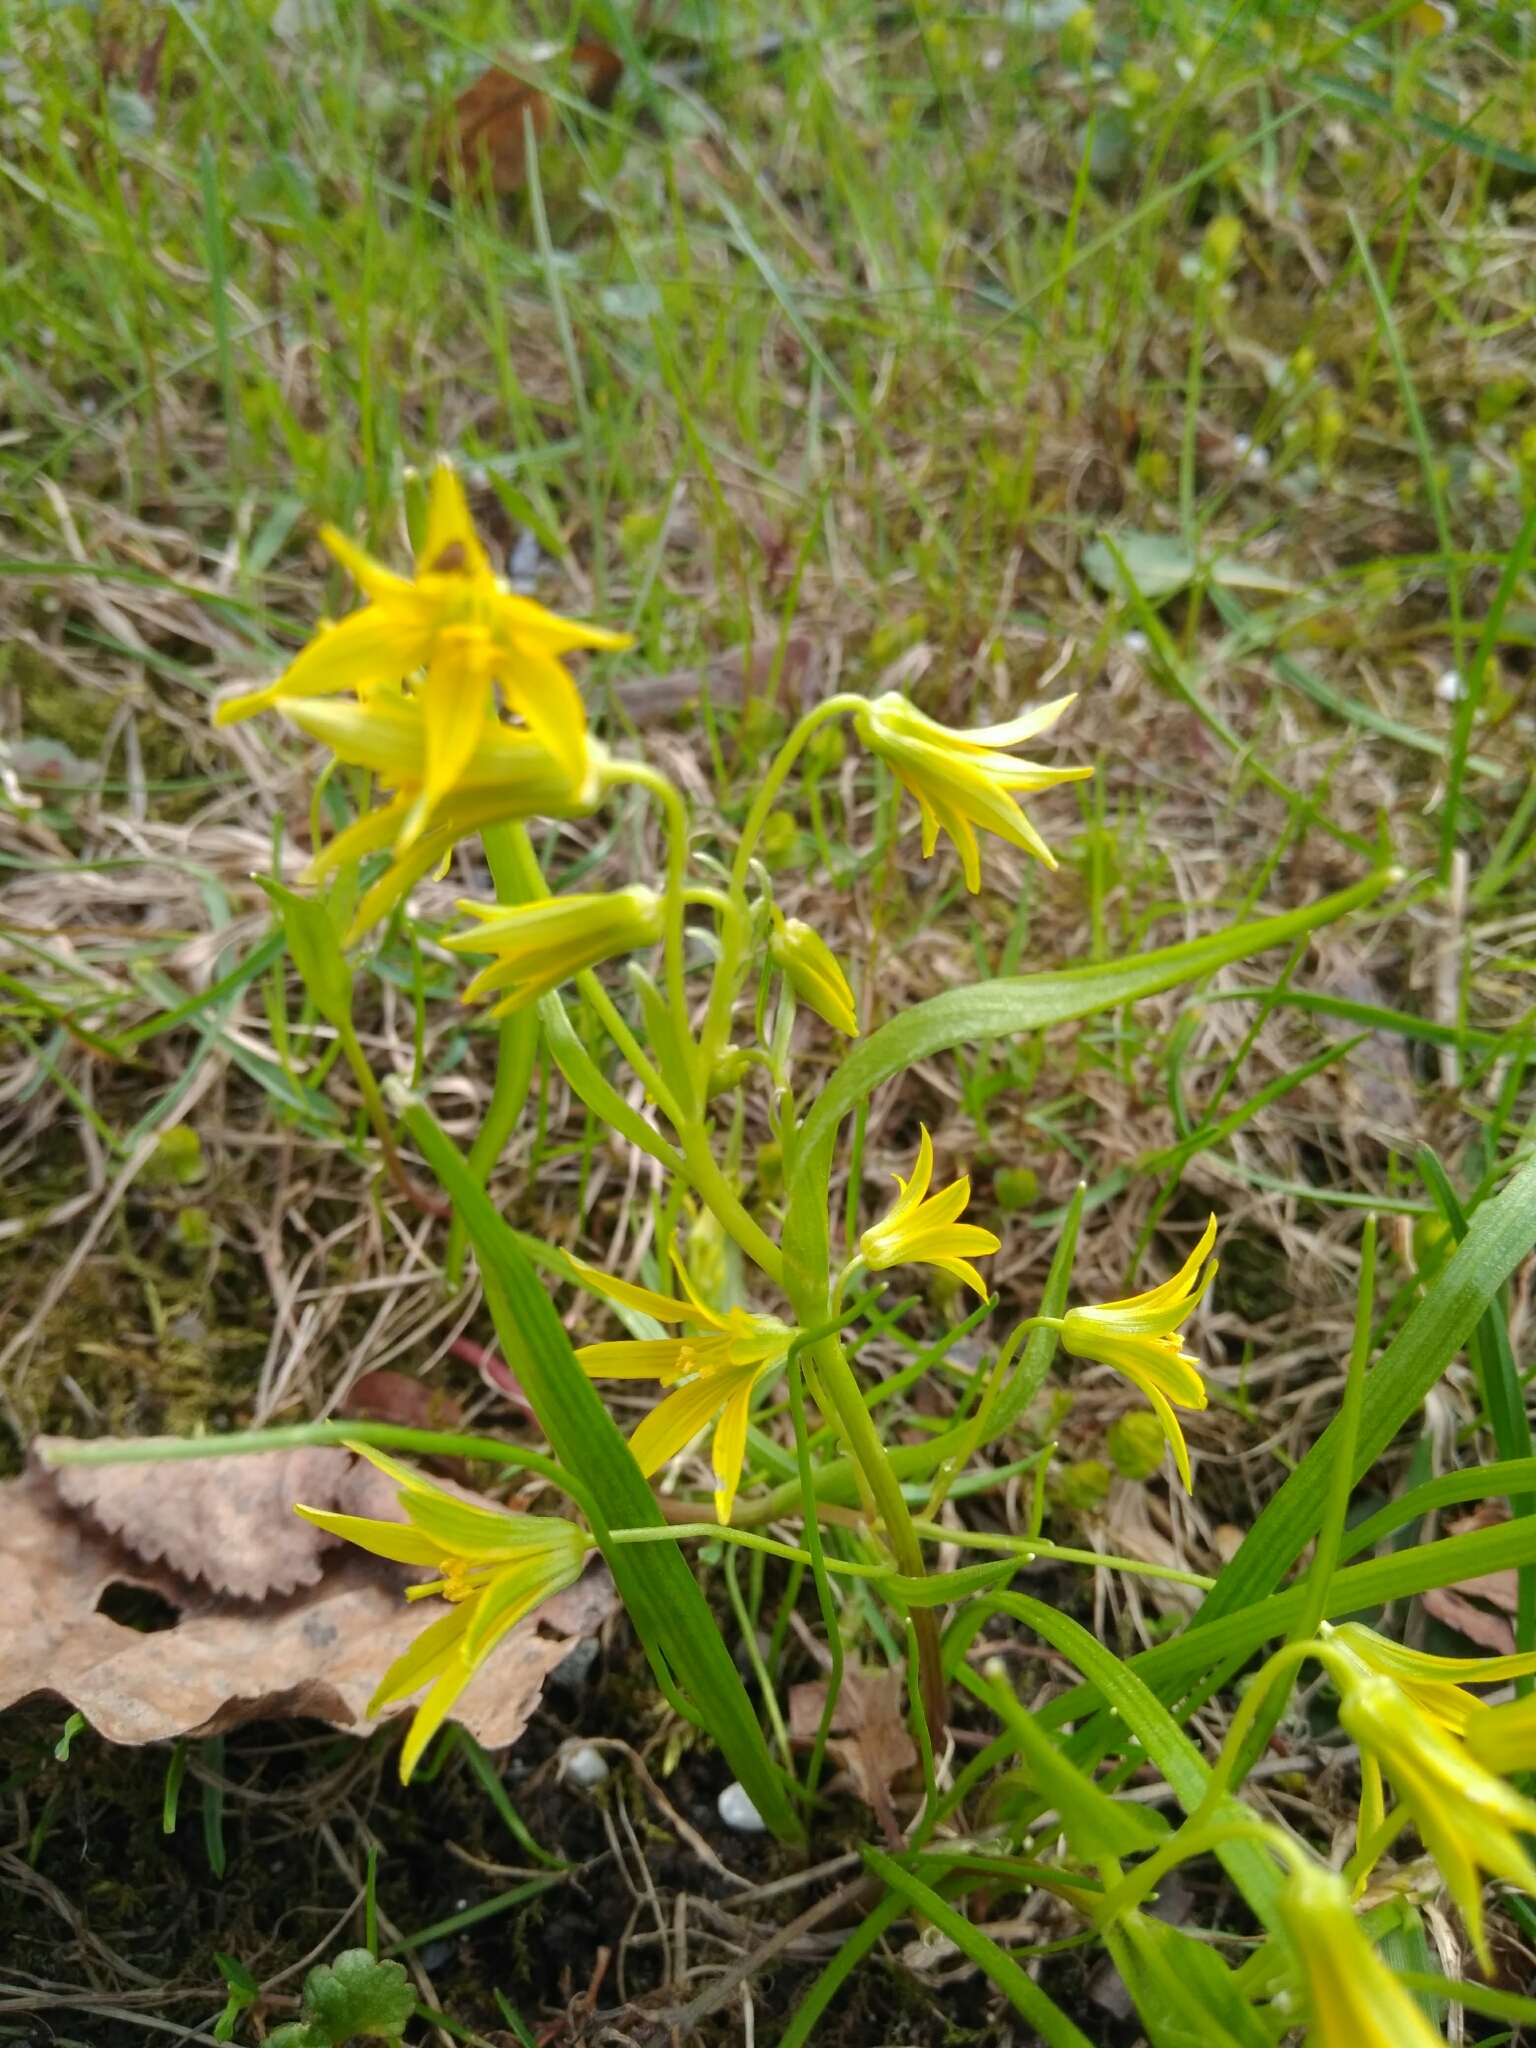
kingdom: Plantae
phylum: Tracheophyta
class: Liliopsida
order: Liliales
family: Liliaceae
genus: Gagea
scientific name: Gagea minima
